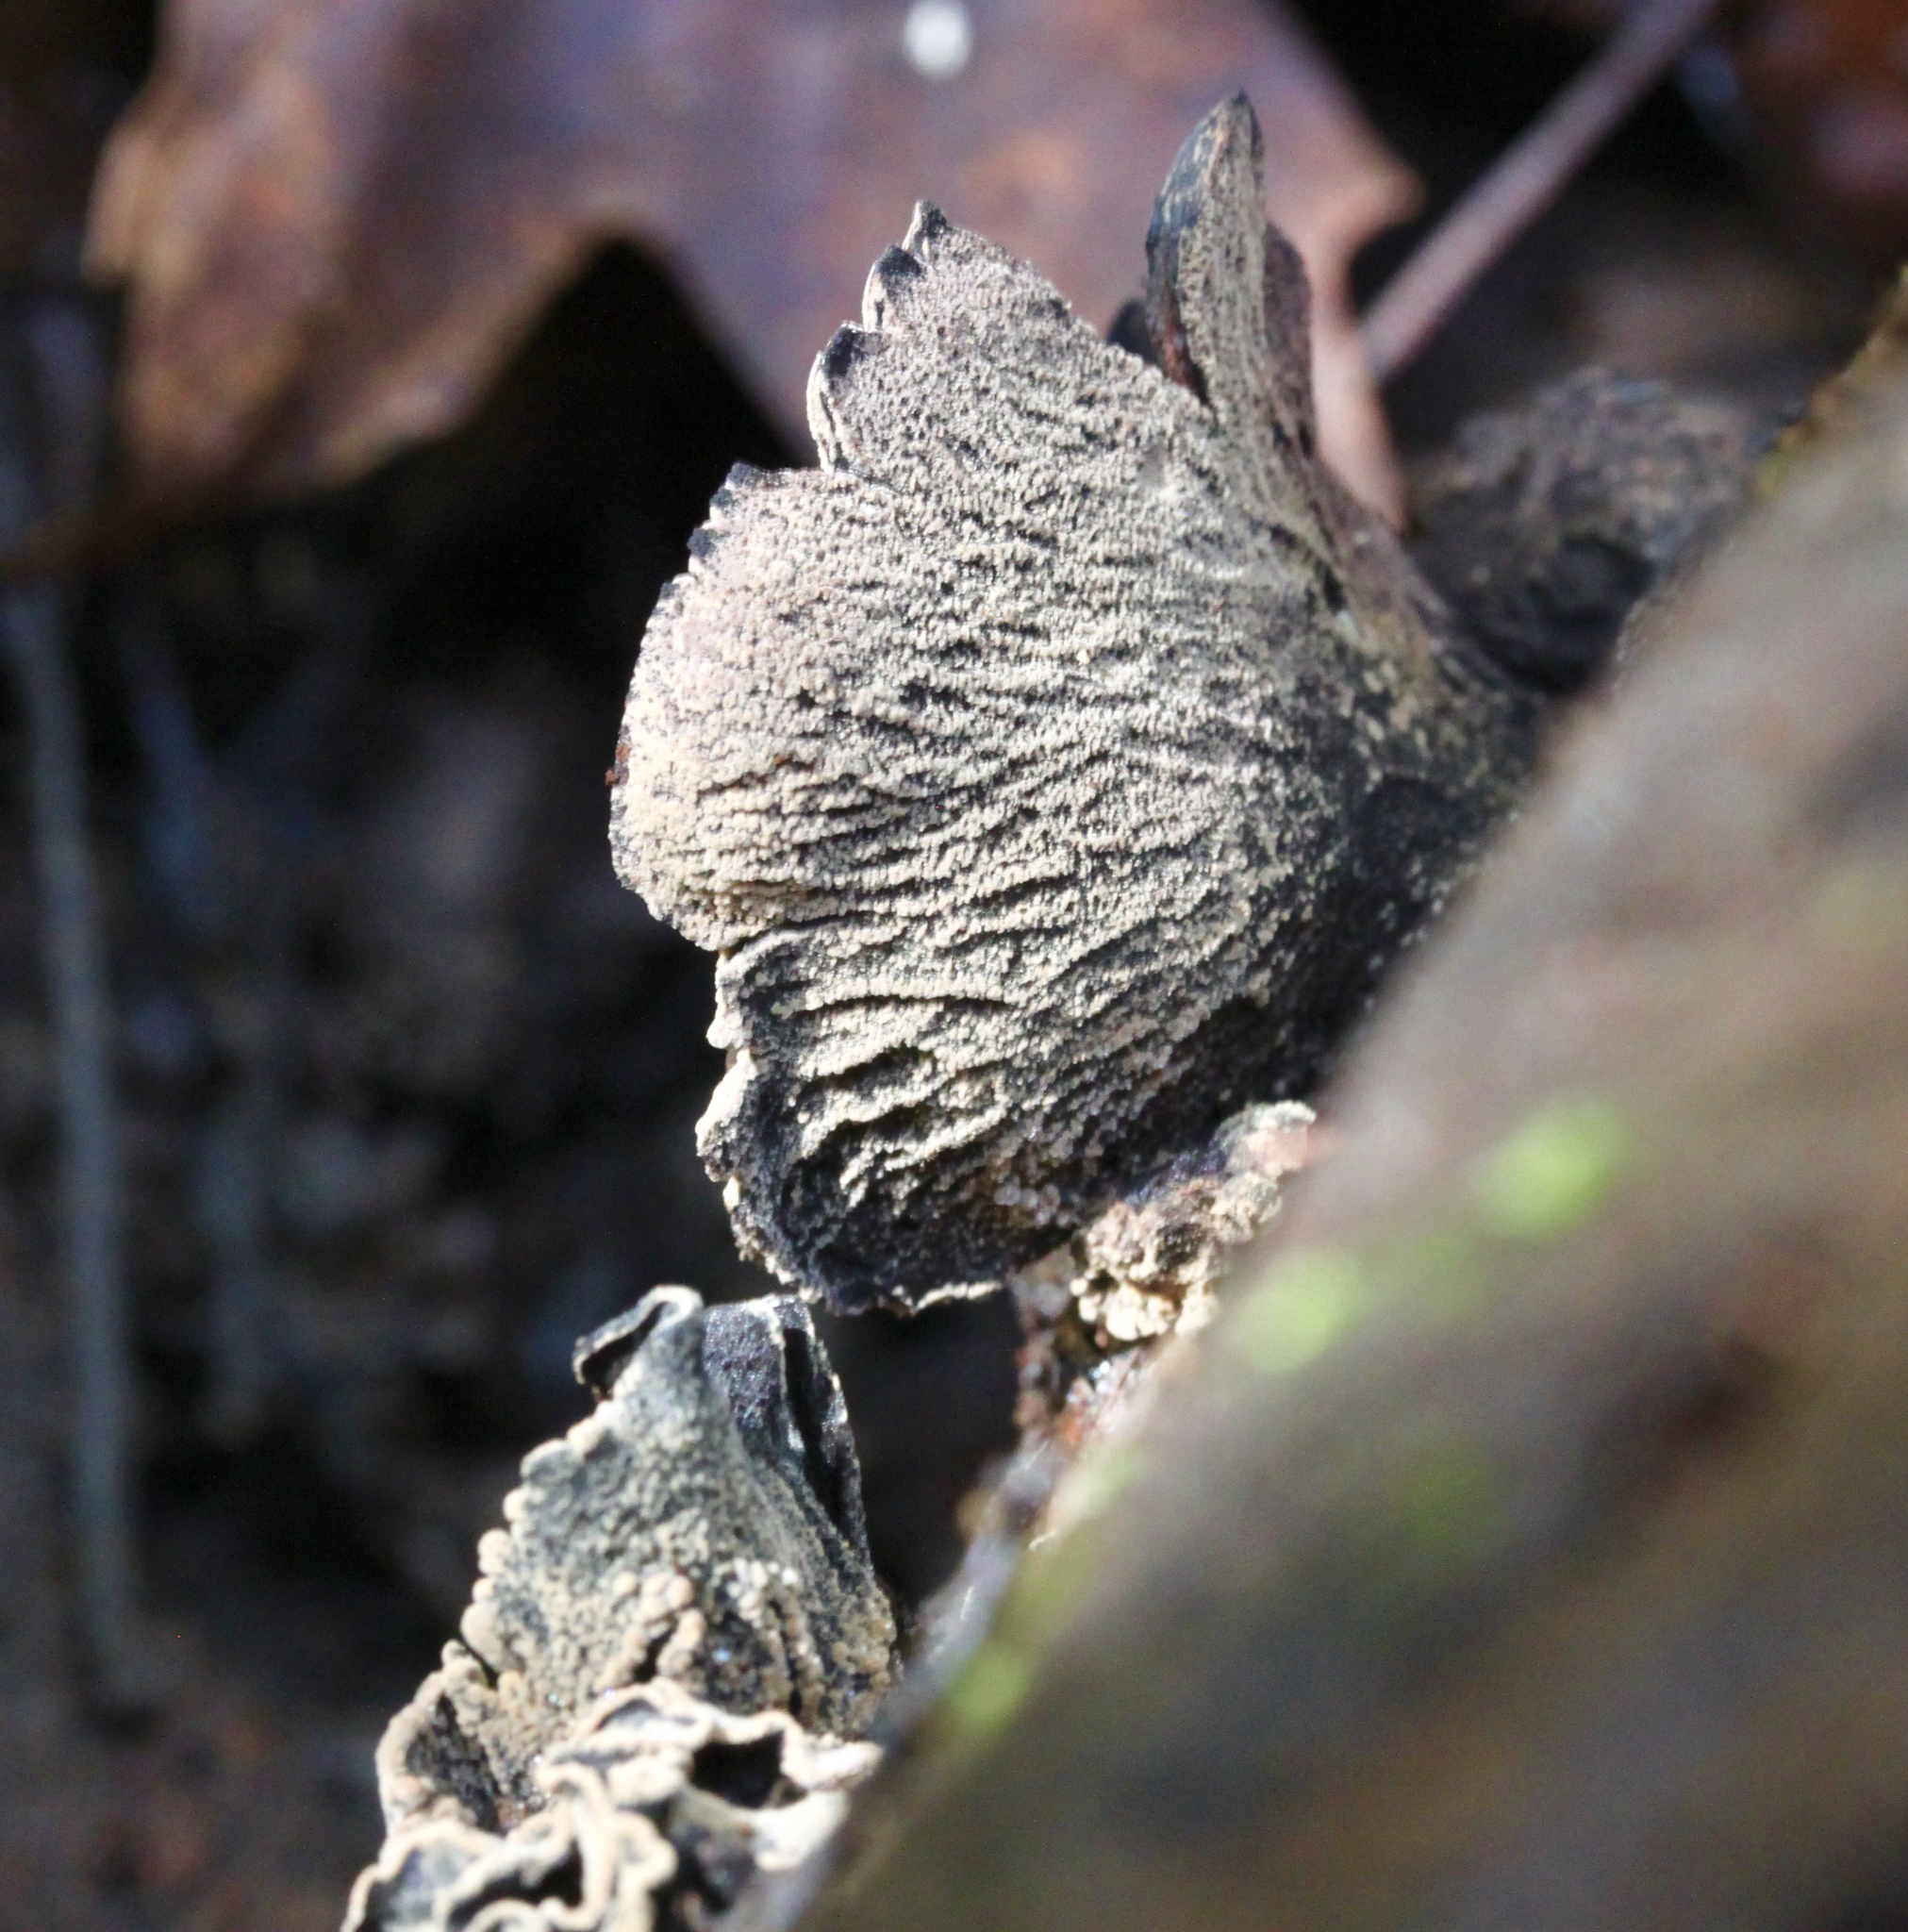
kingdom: Fungi
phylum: Ascomycota
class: Leotiomycetes
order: Helotiales
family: Cordieritidaceae
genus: Diplocarpa
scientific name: Diplocarpa irregularis
